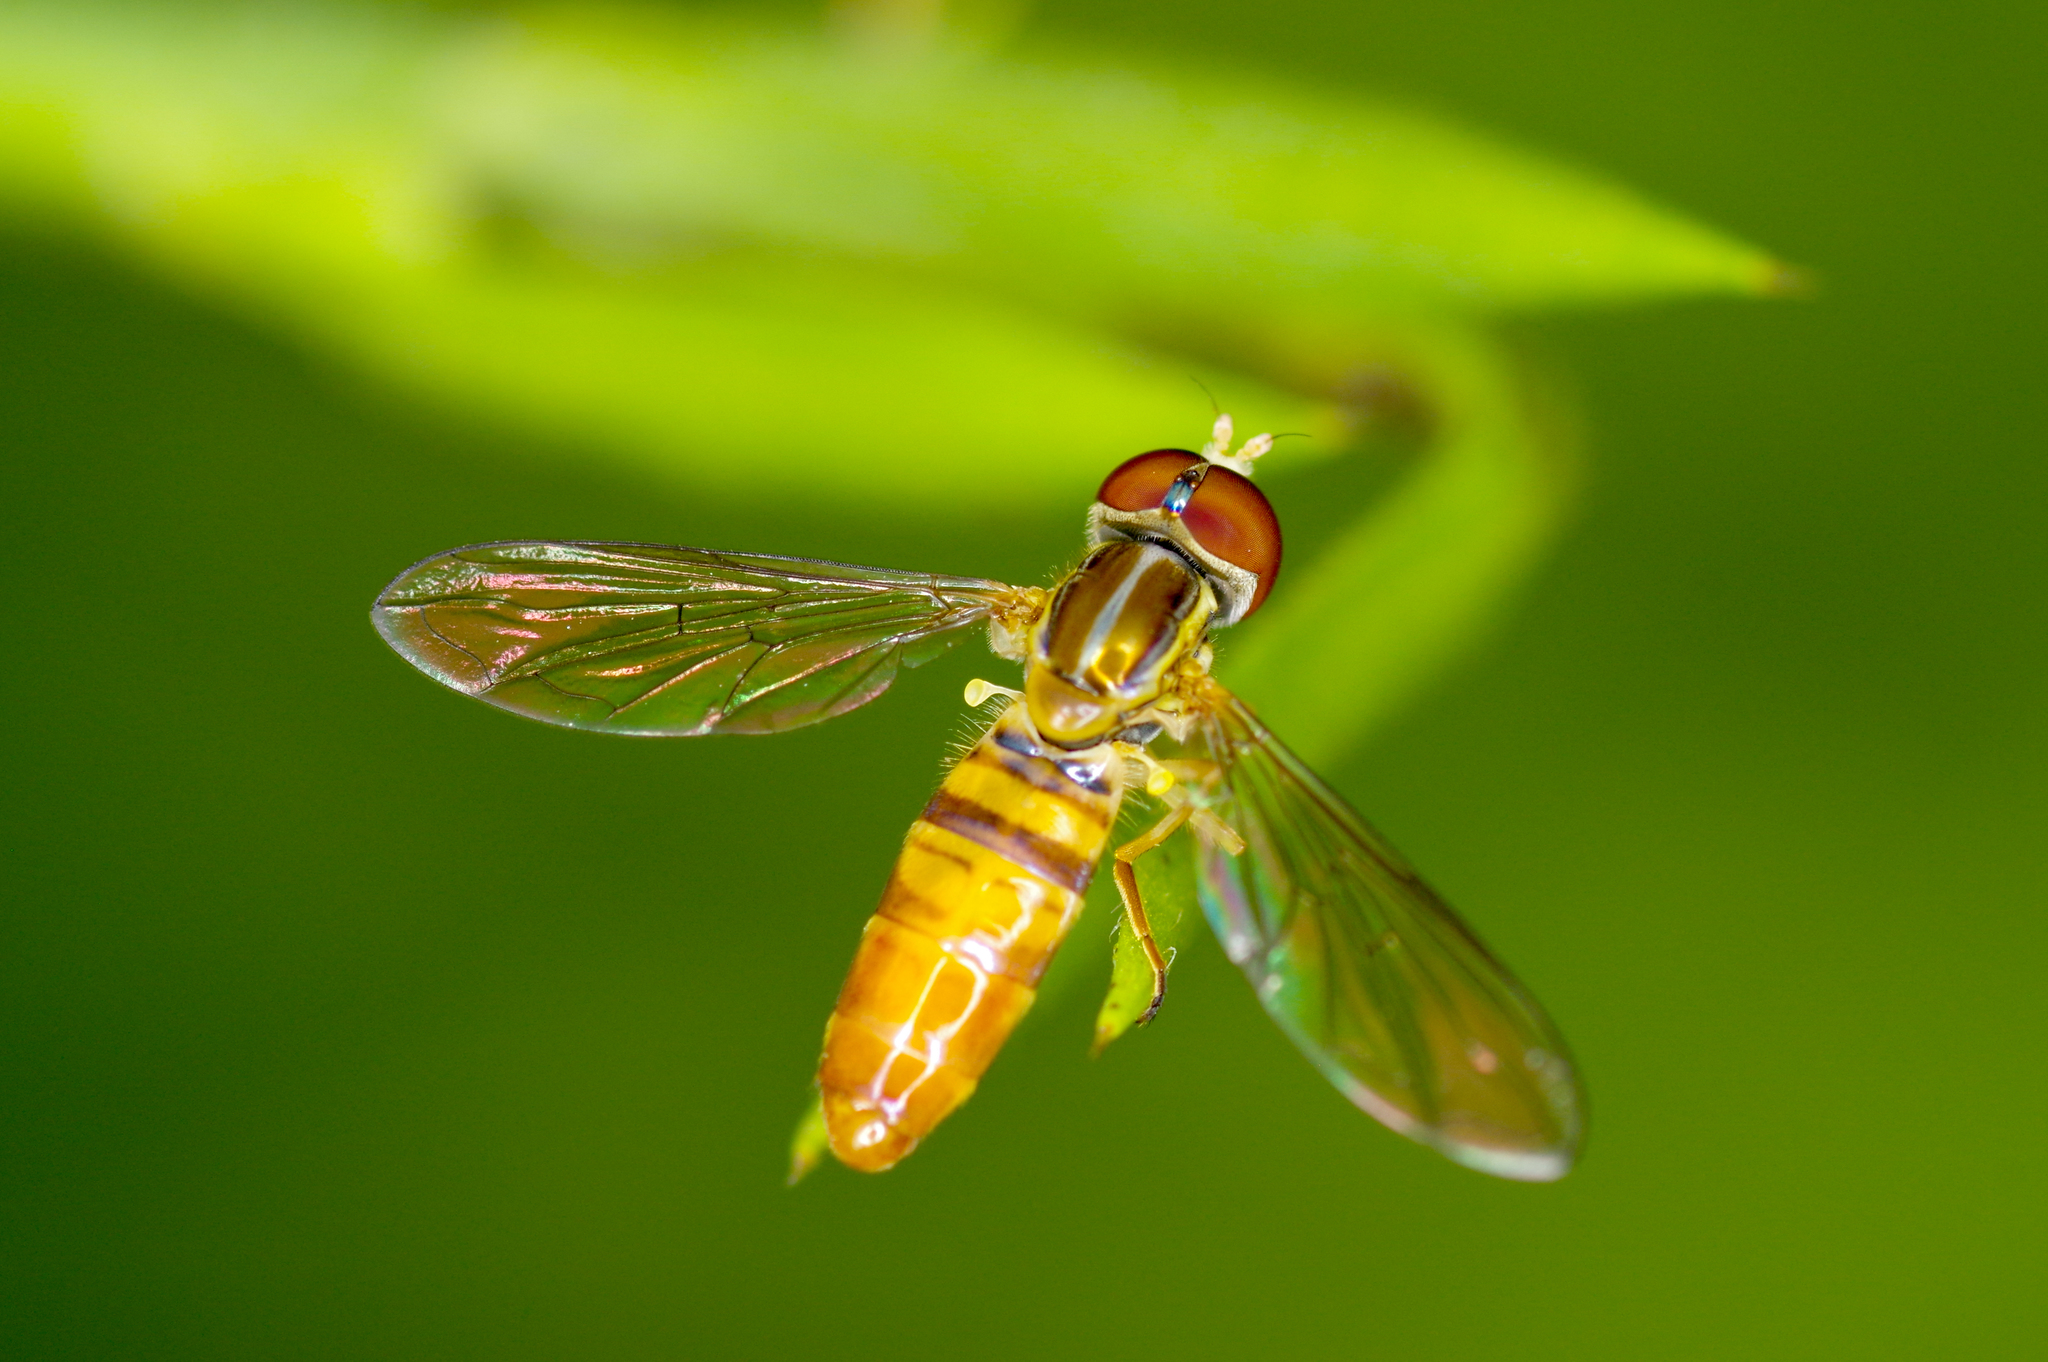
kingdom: Animalia
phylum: Arthropoda
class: Insecta
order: Diptera
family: Syrphidae
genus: Toxomerus
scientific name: Toxomerus politus
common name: Maize calligrapher
